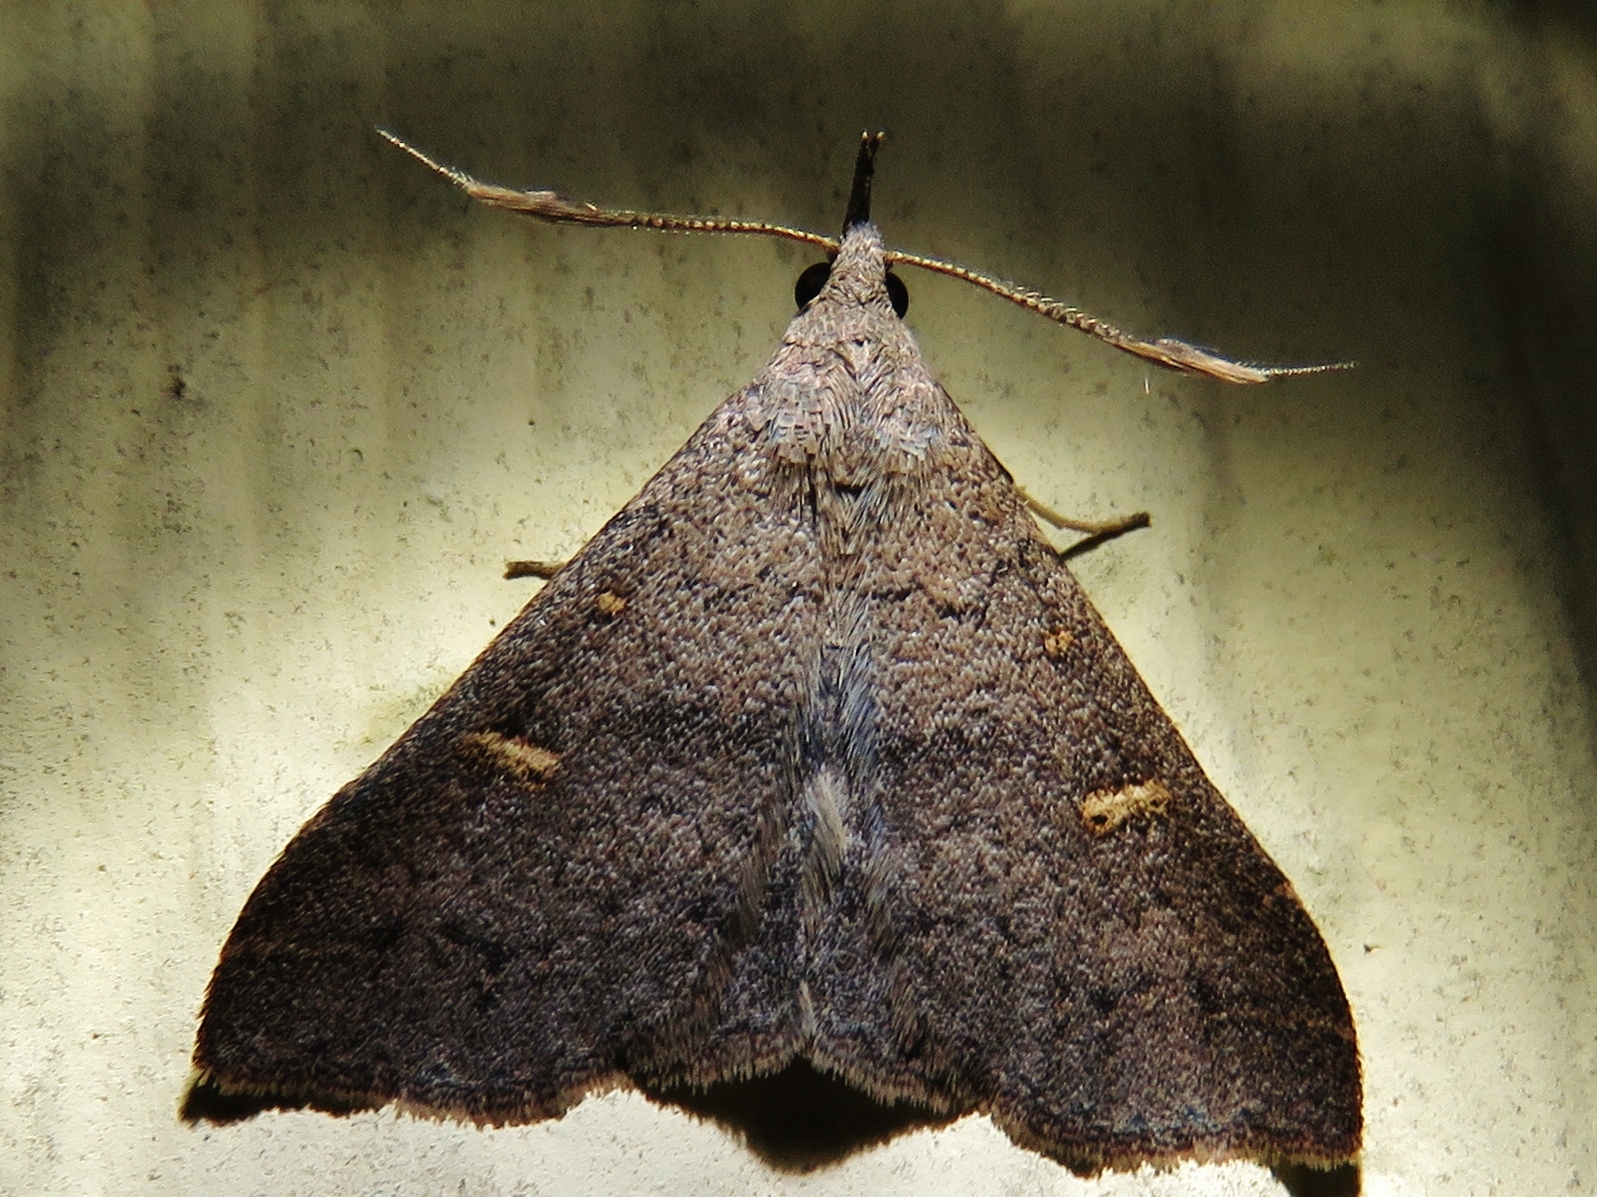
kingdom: Animalia
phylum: Arthropoda
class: Insecta
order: Lepidoptera
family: Erebidae
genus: Renia
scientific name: Renia adspergillus
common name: Speckled renia moth
